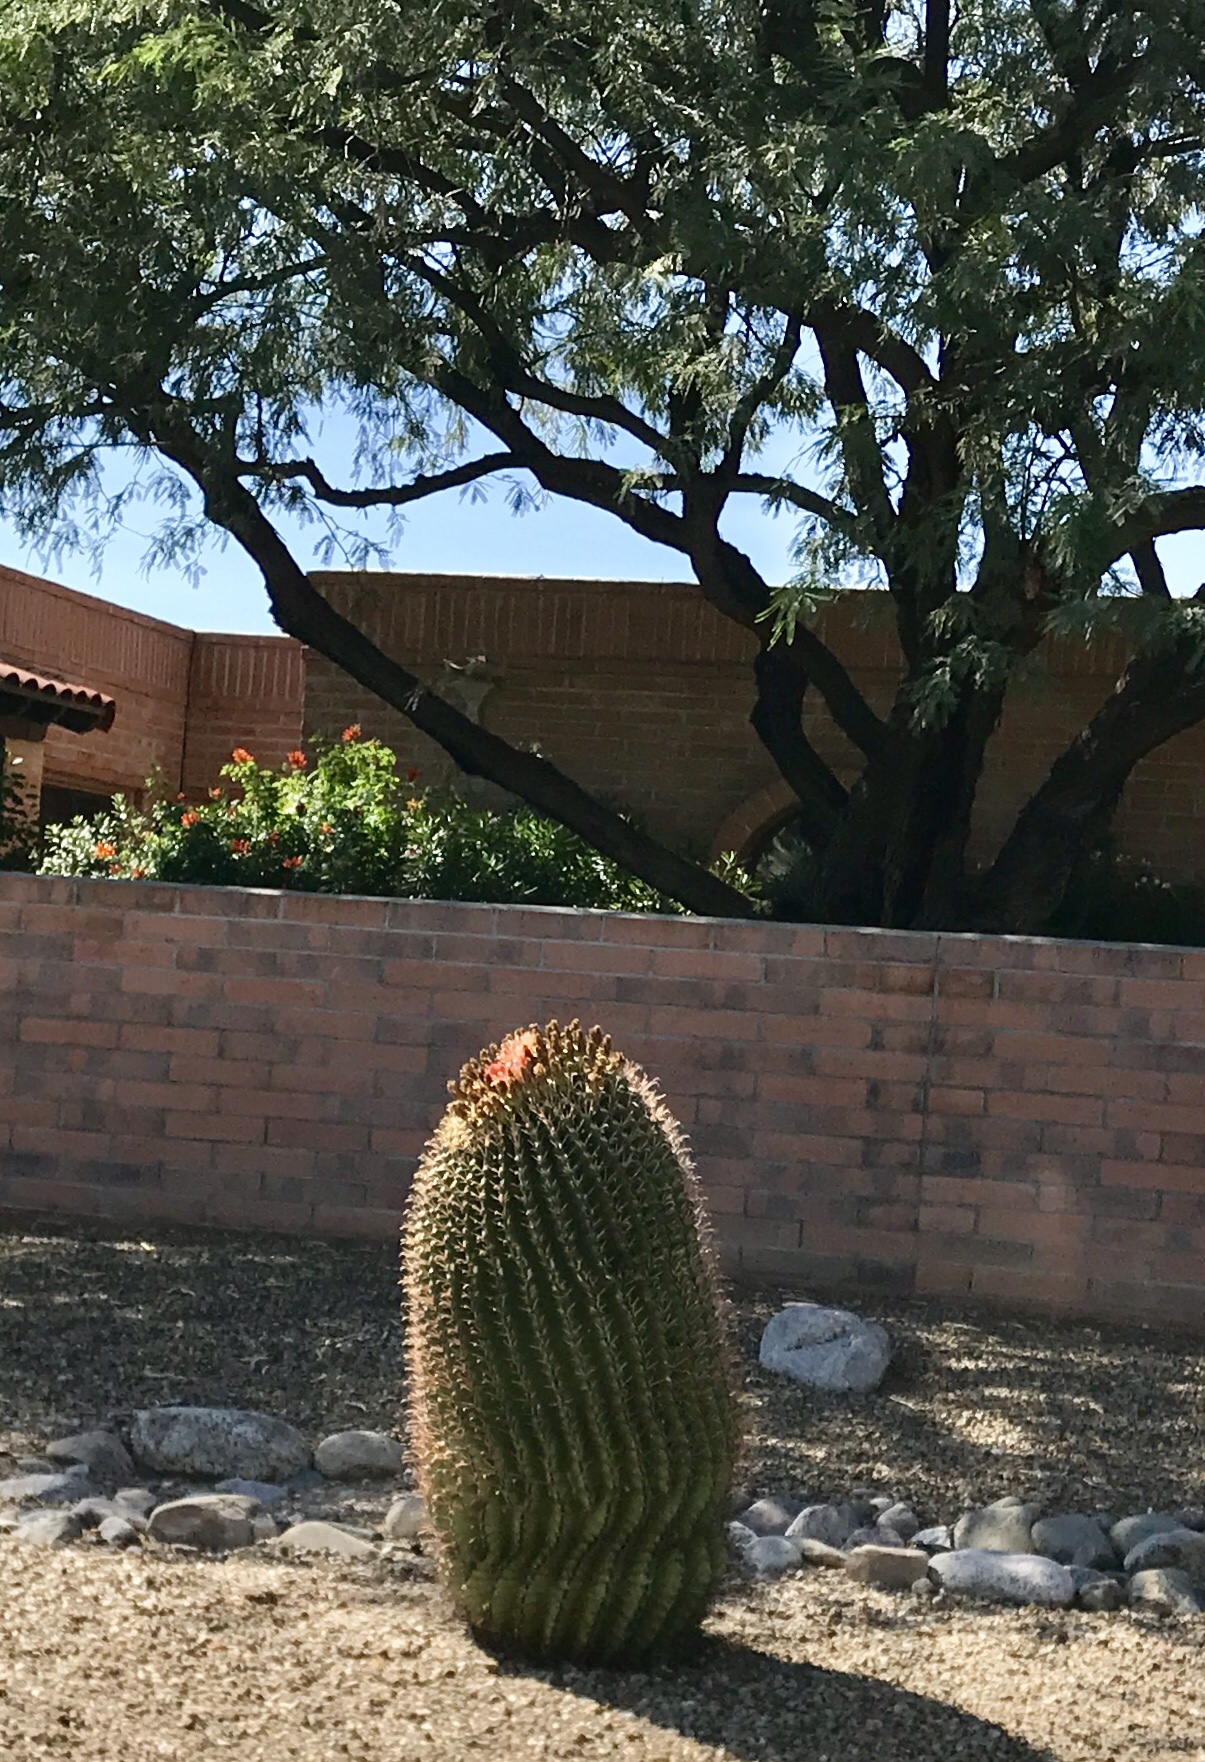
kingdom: Plantae
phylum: Tracheophyta
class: Magnoliopsida
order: Caryophyllales
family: Cactaceae
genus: Ferocactus
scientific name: Ferocactus wislizeni
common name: Candy barrel cactus
